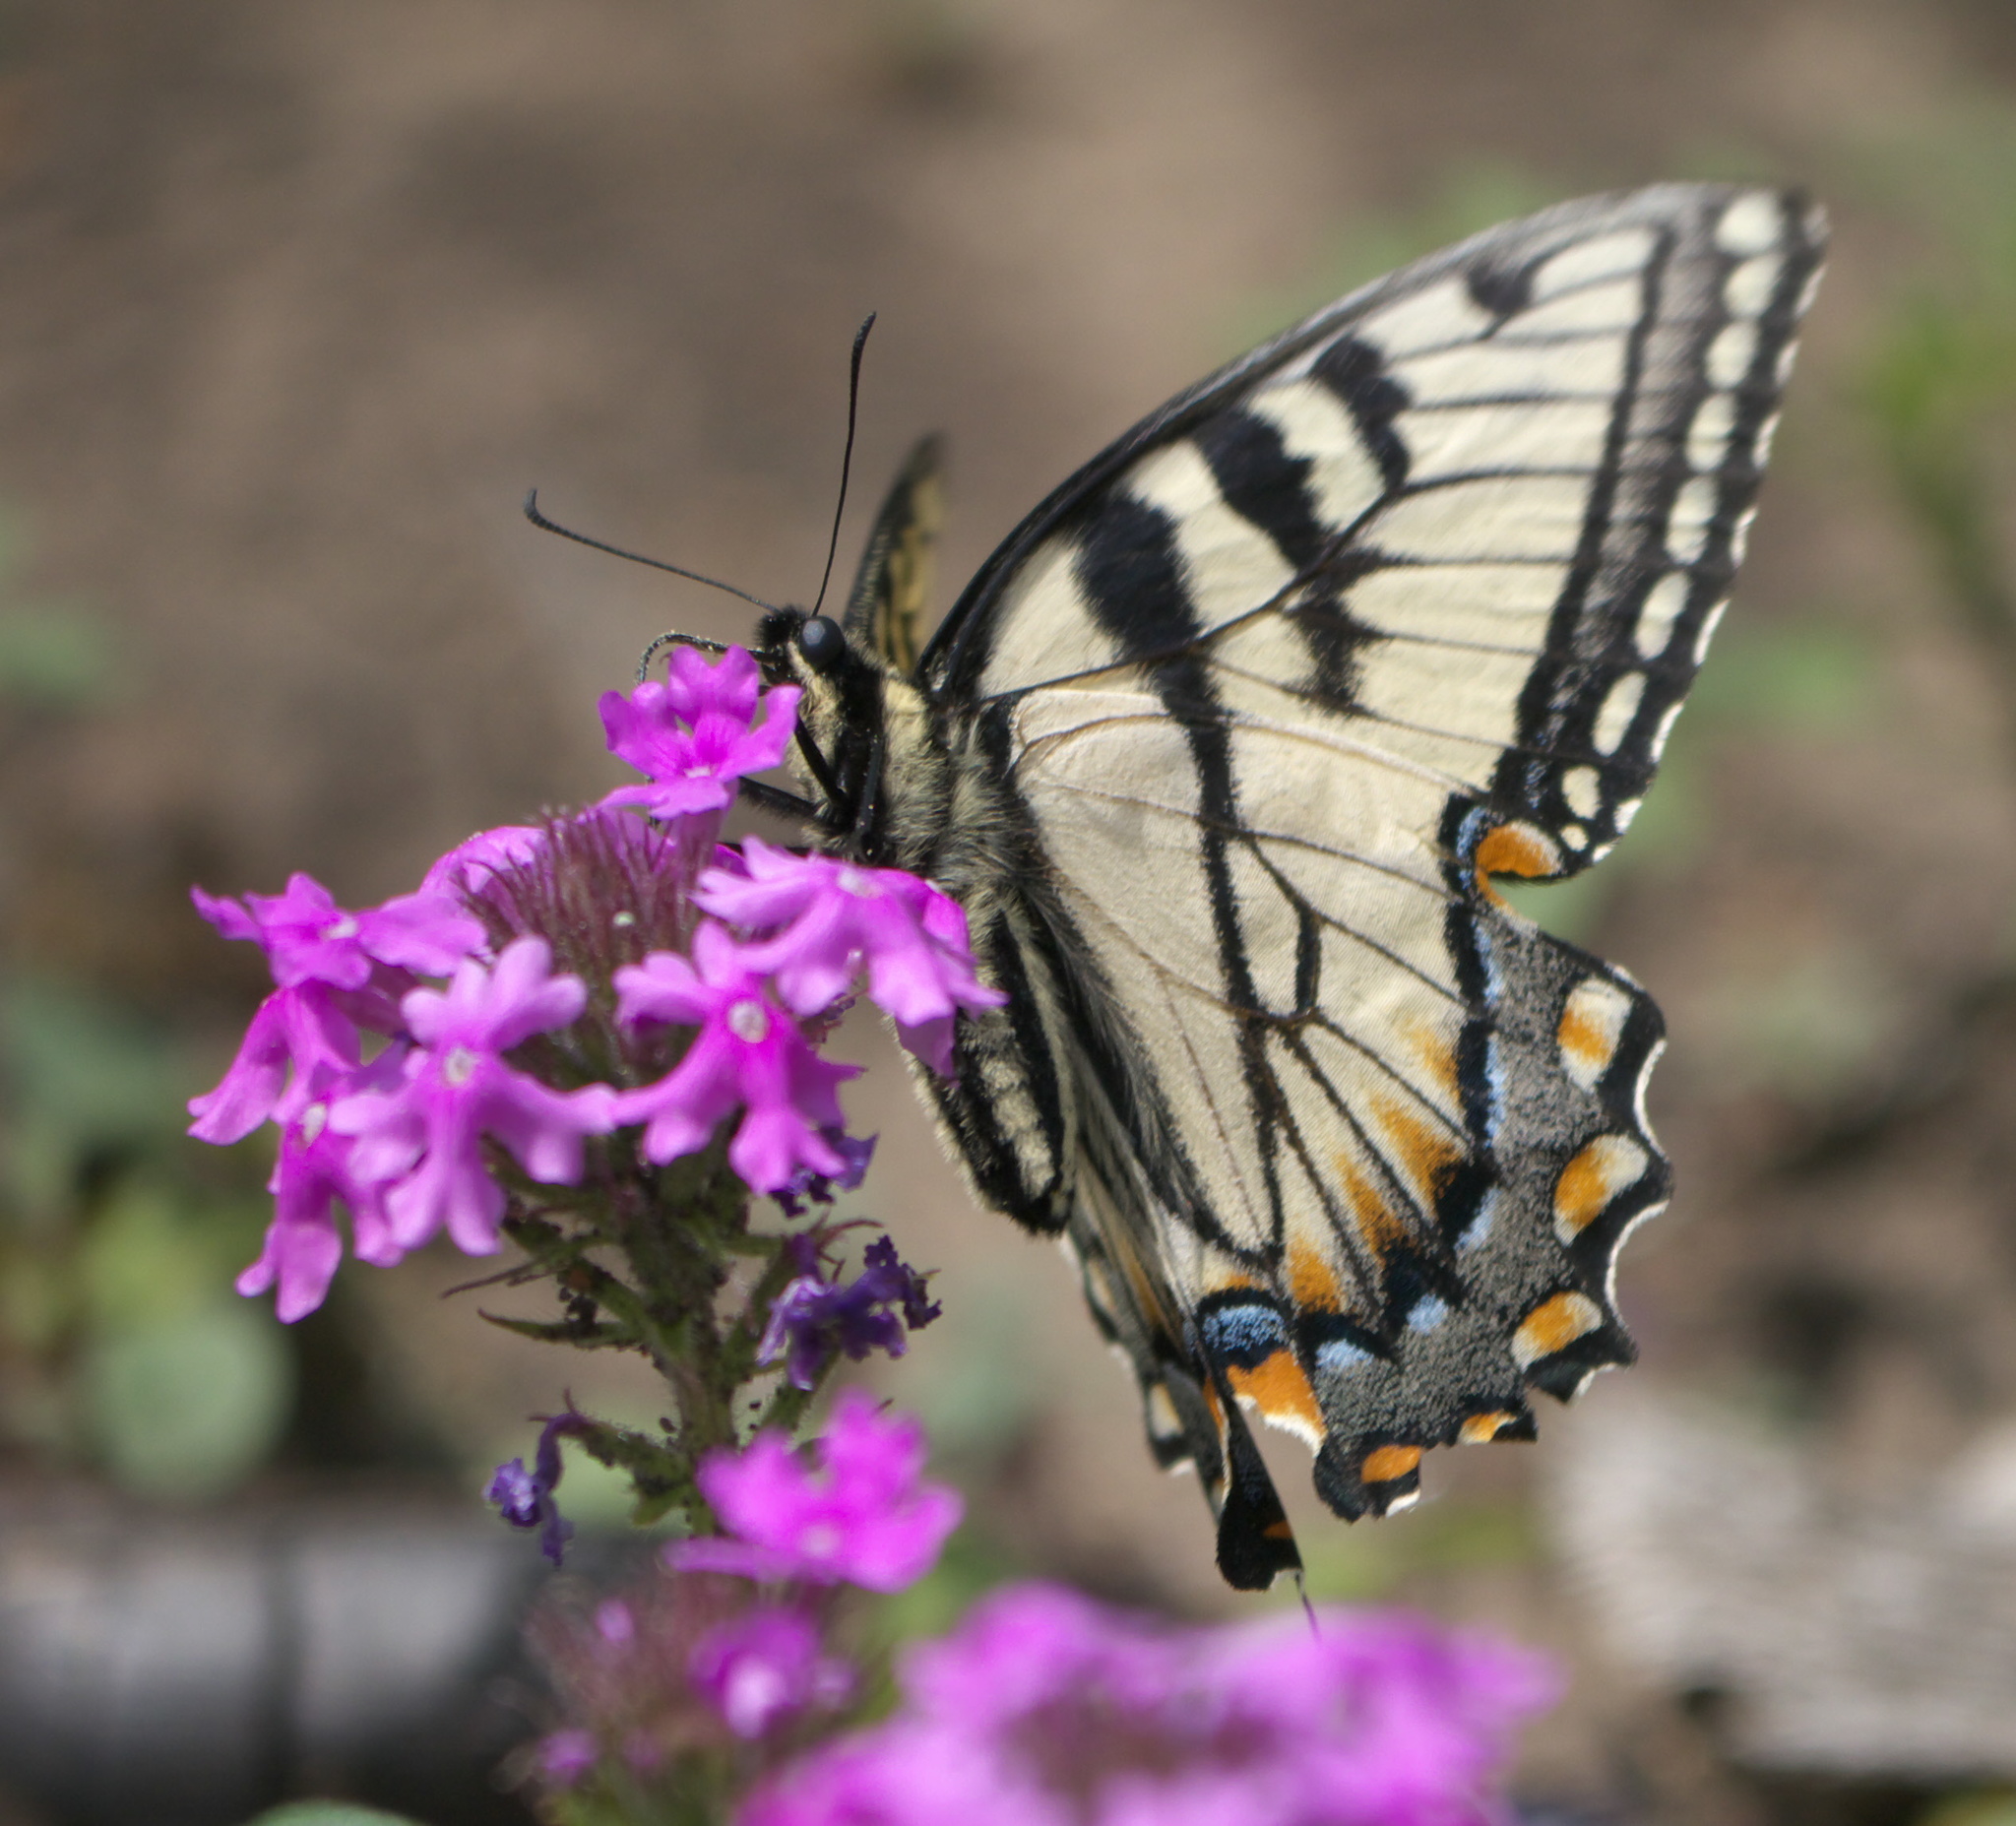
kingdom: Animalia
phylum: Arthropoda
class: Insecta
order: Lepidoptera
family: Papilionidae
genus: Papilio
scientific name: Papilio glaucus
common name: Tiger swallowtail
